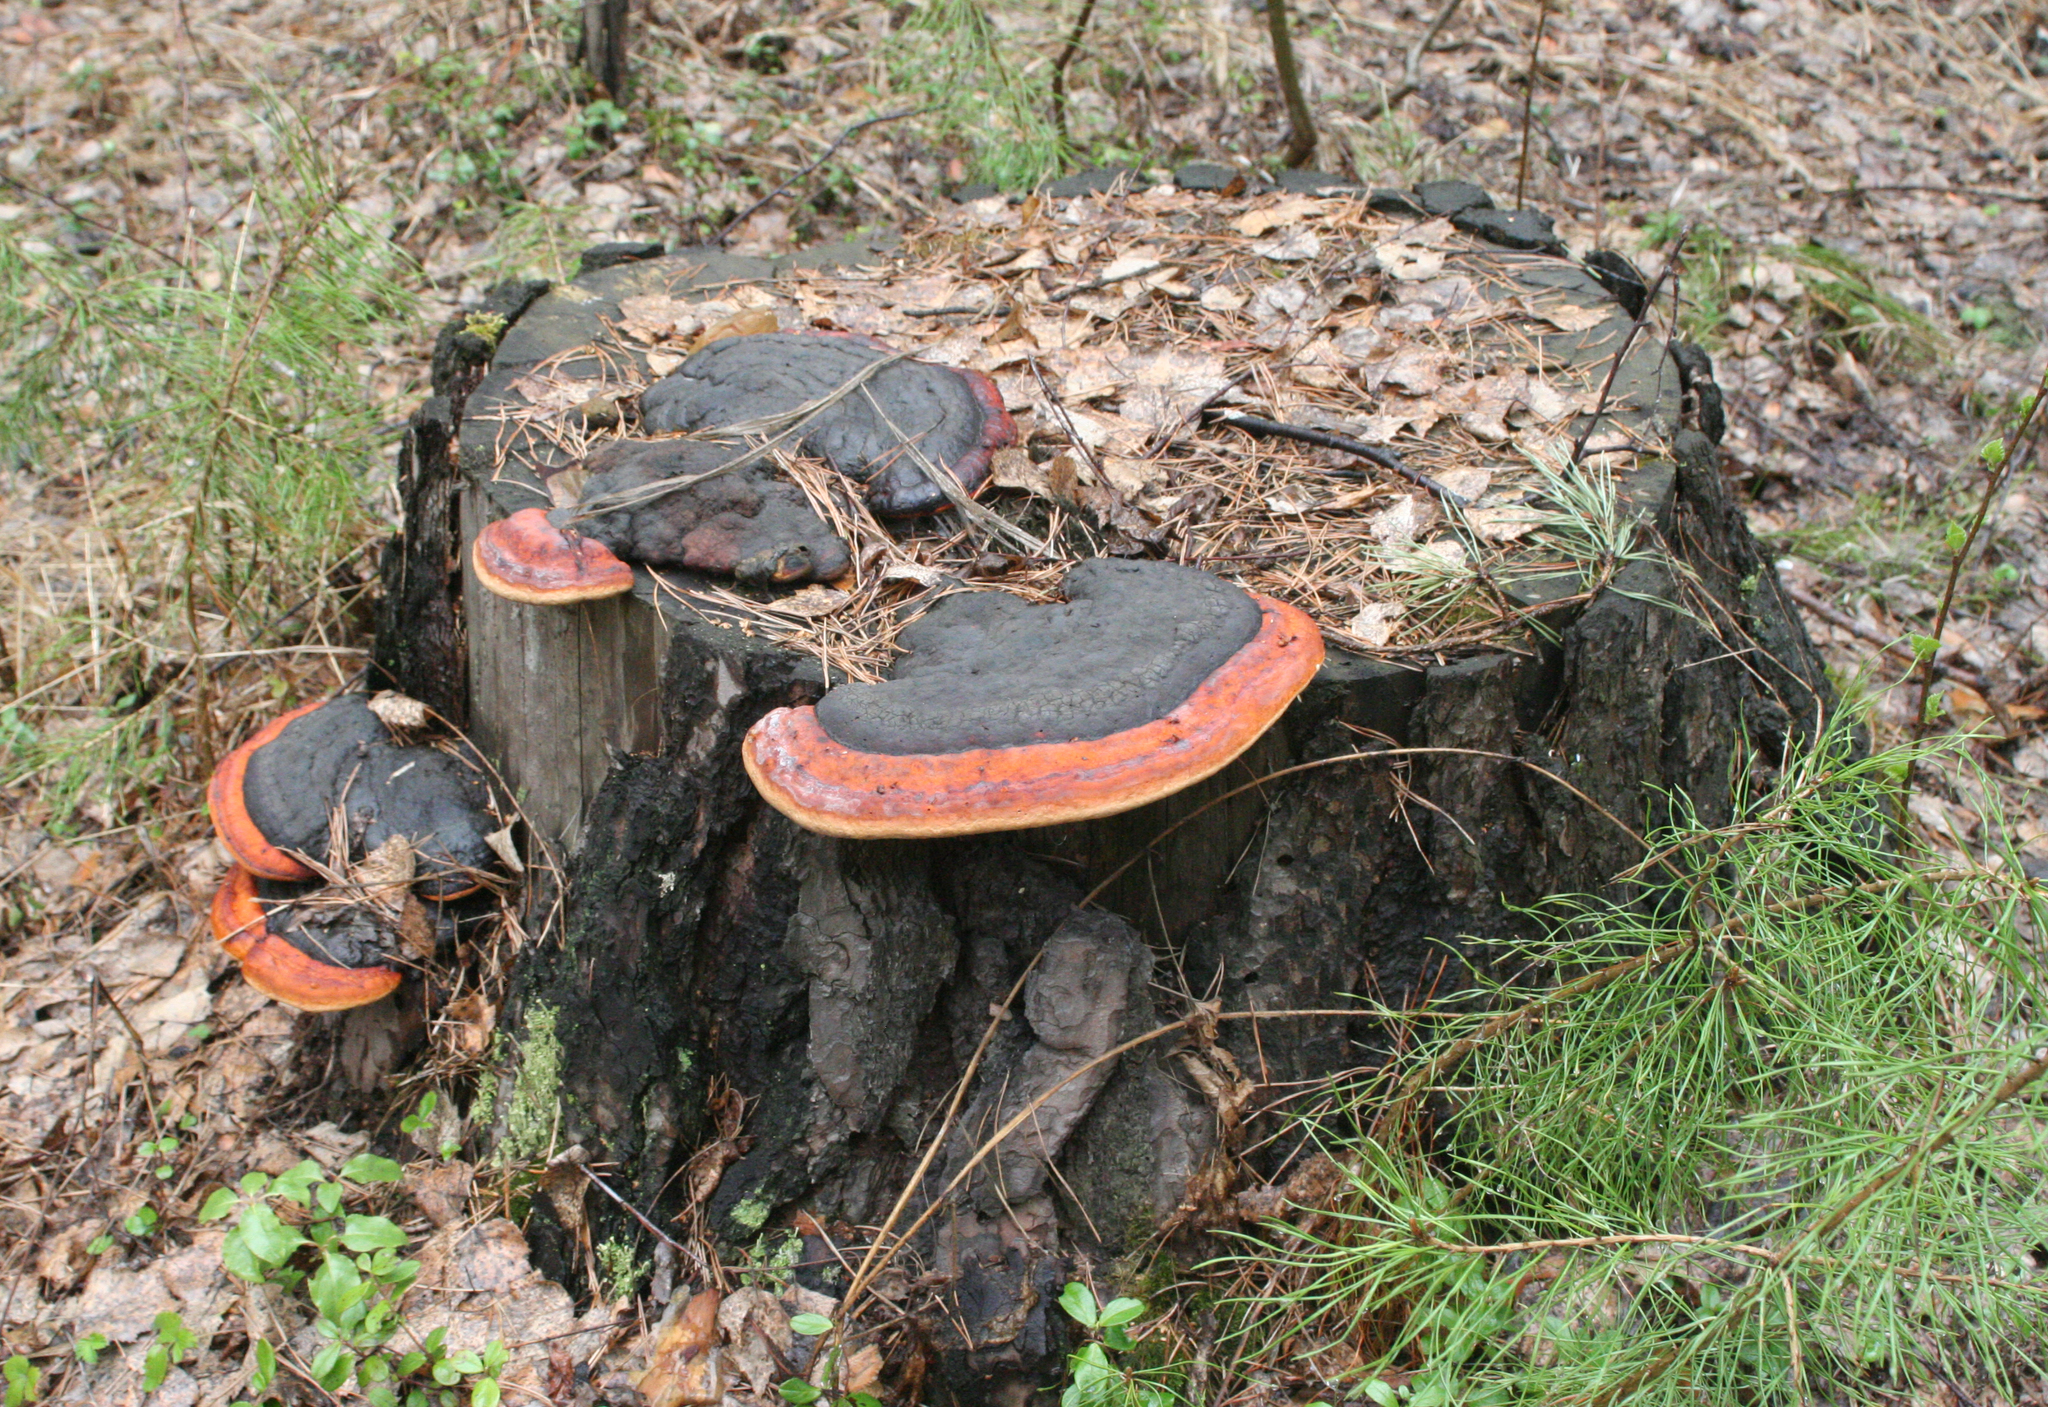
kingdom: Fungi
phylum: Basidiomycota
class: Agaricomycetes
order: Polyporales
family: Fomitopsidaceae
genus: Fomitopsis
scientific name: Fomitopsis pinicola
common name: Red-belted bracket
